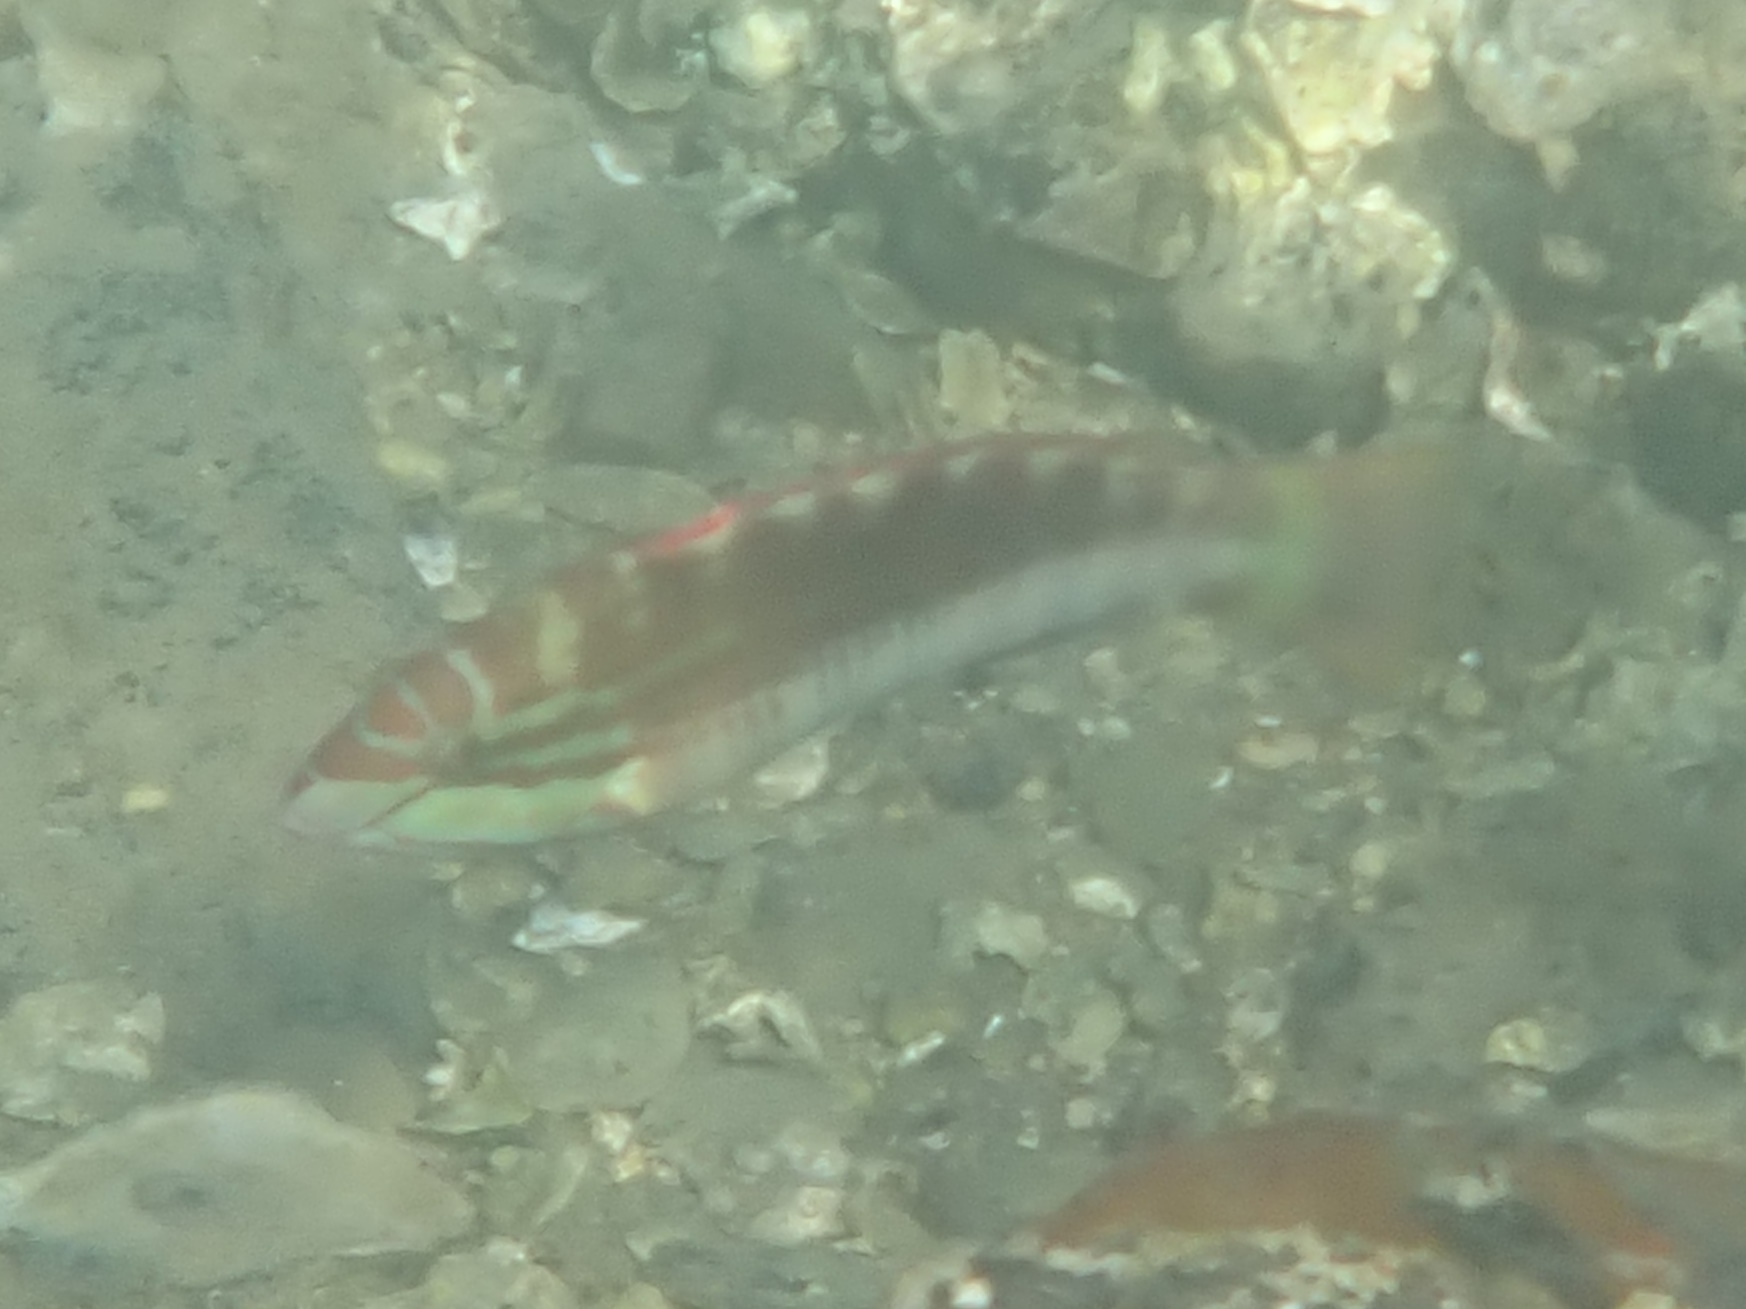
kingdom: Animalia
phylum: Chordata
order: Perciformes
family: Labridae
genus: Pseudolabrus
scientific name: Pseudolabrus guentheri
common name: Günther's wrasse
